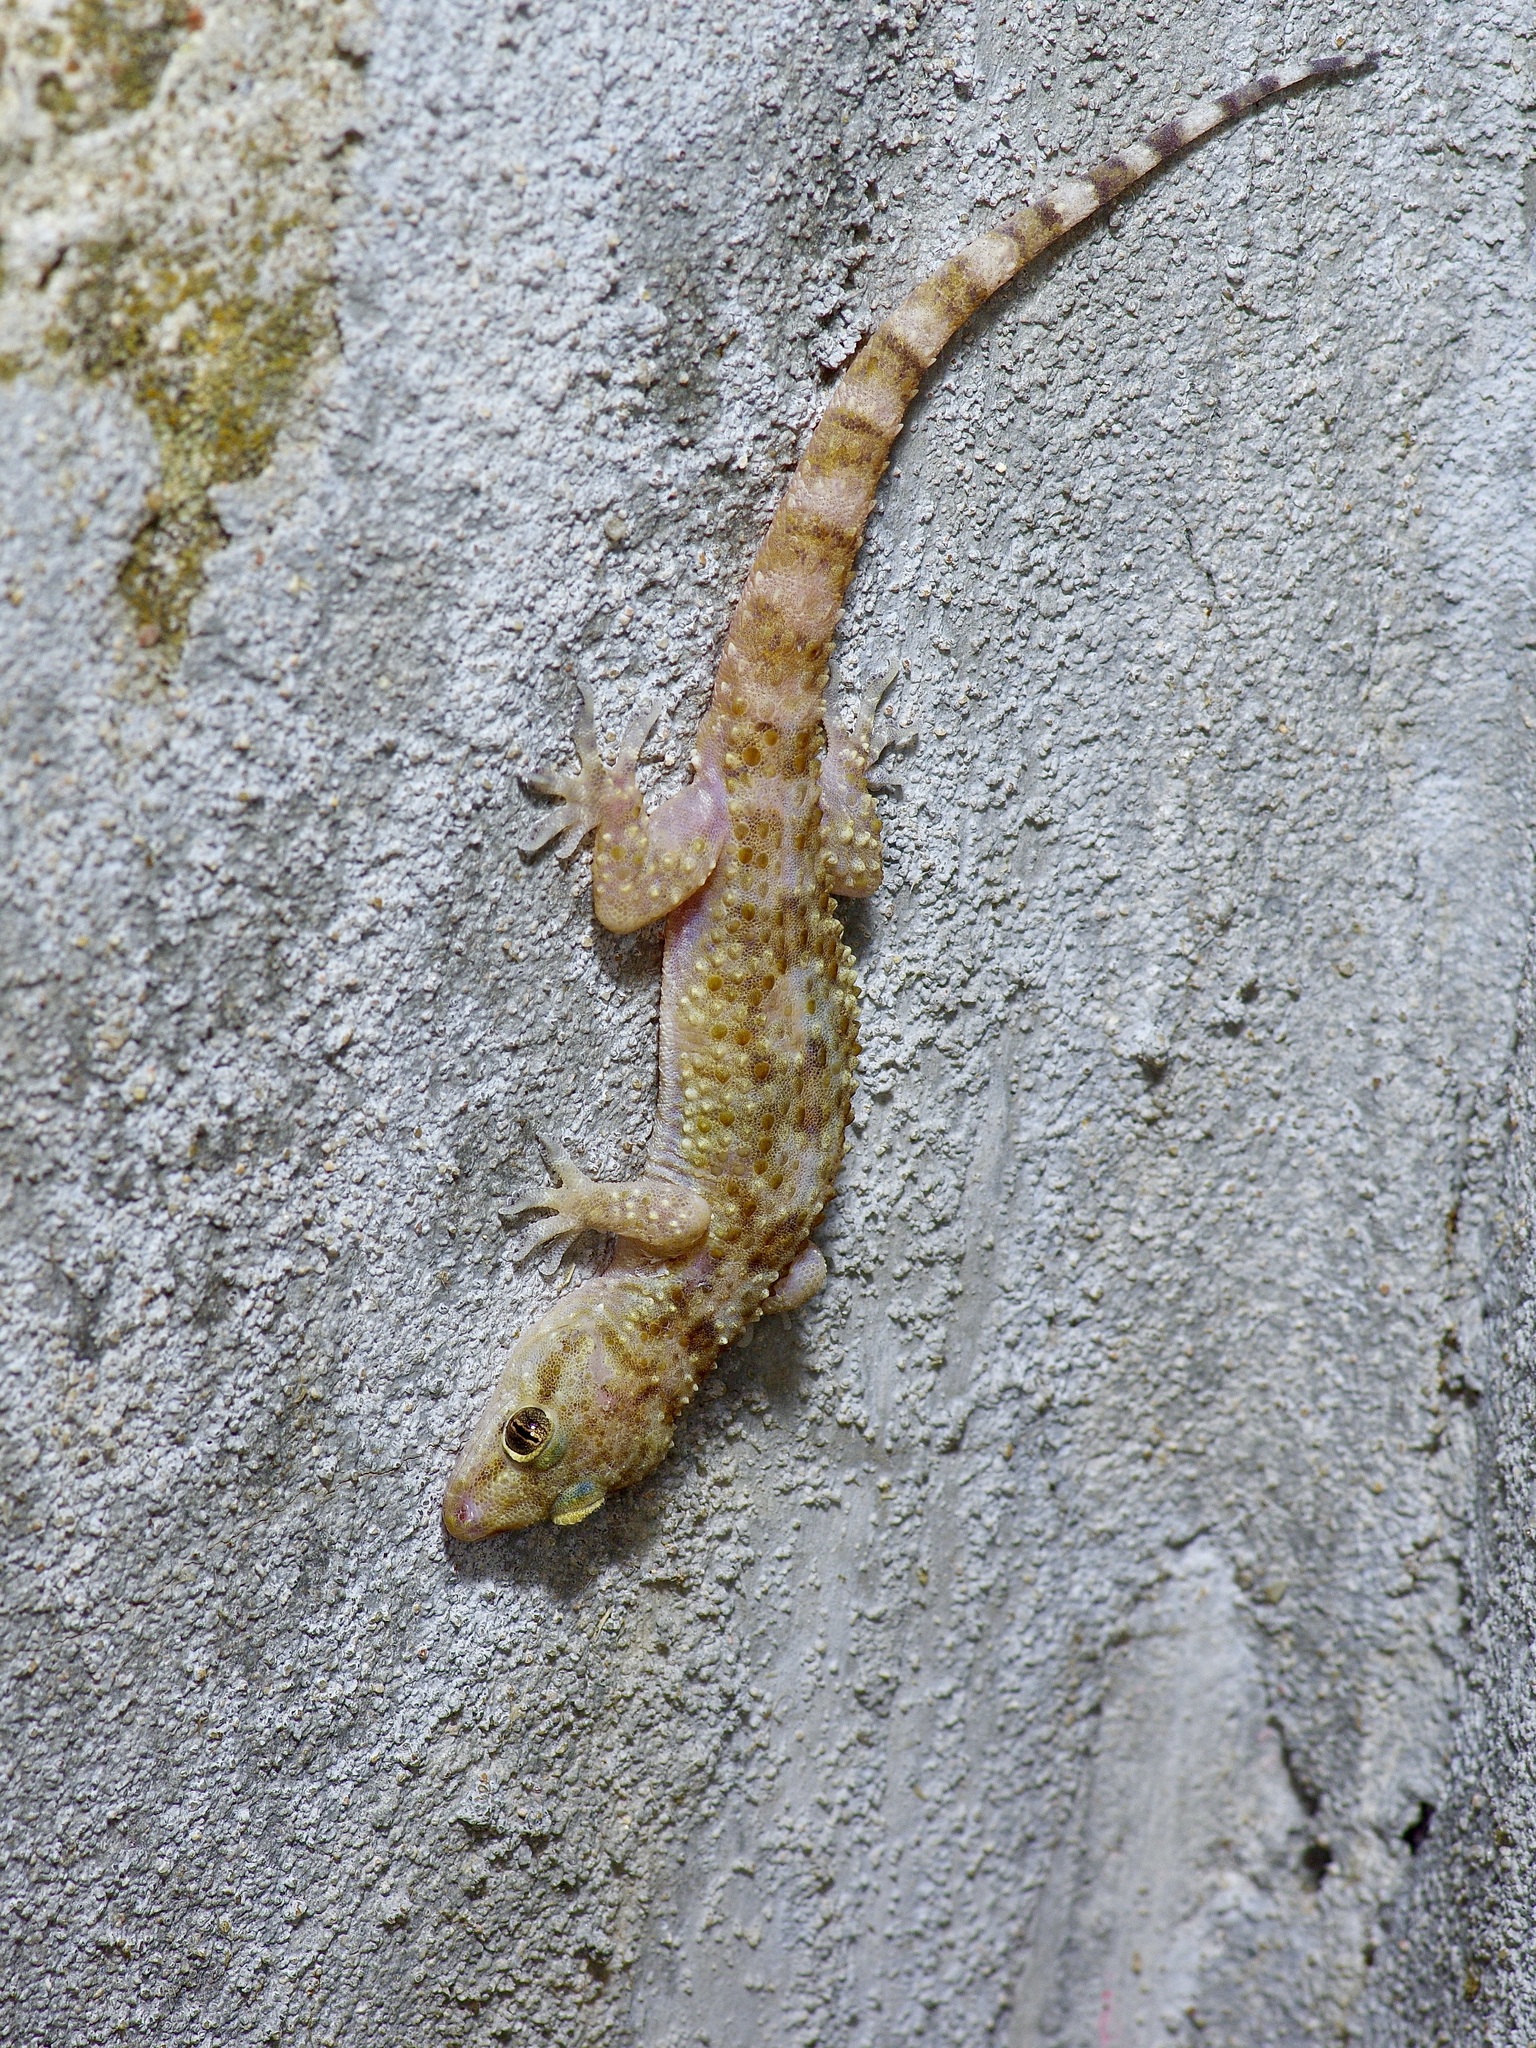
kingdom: Animalia
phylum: Chordata
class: Squamata
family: Gekkonidae
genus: Hemidactylus
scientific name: Hemidactylus turcicus
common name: Turkish gecko
